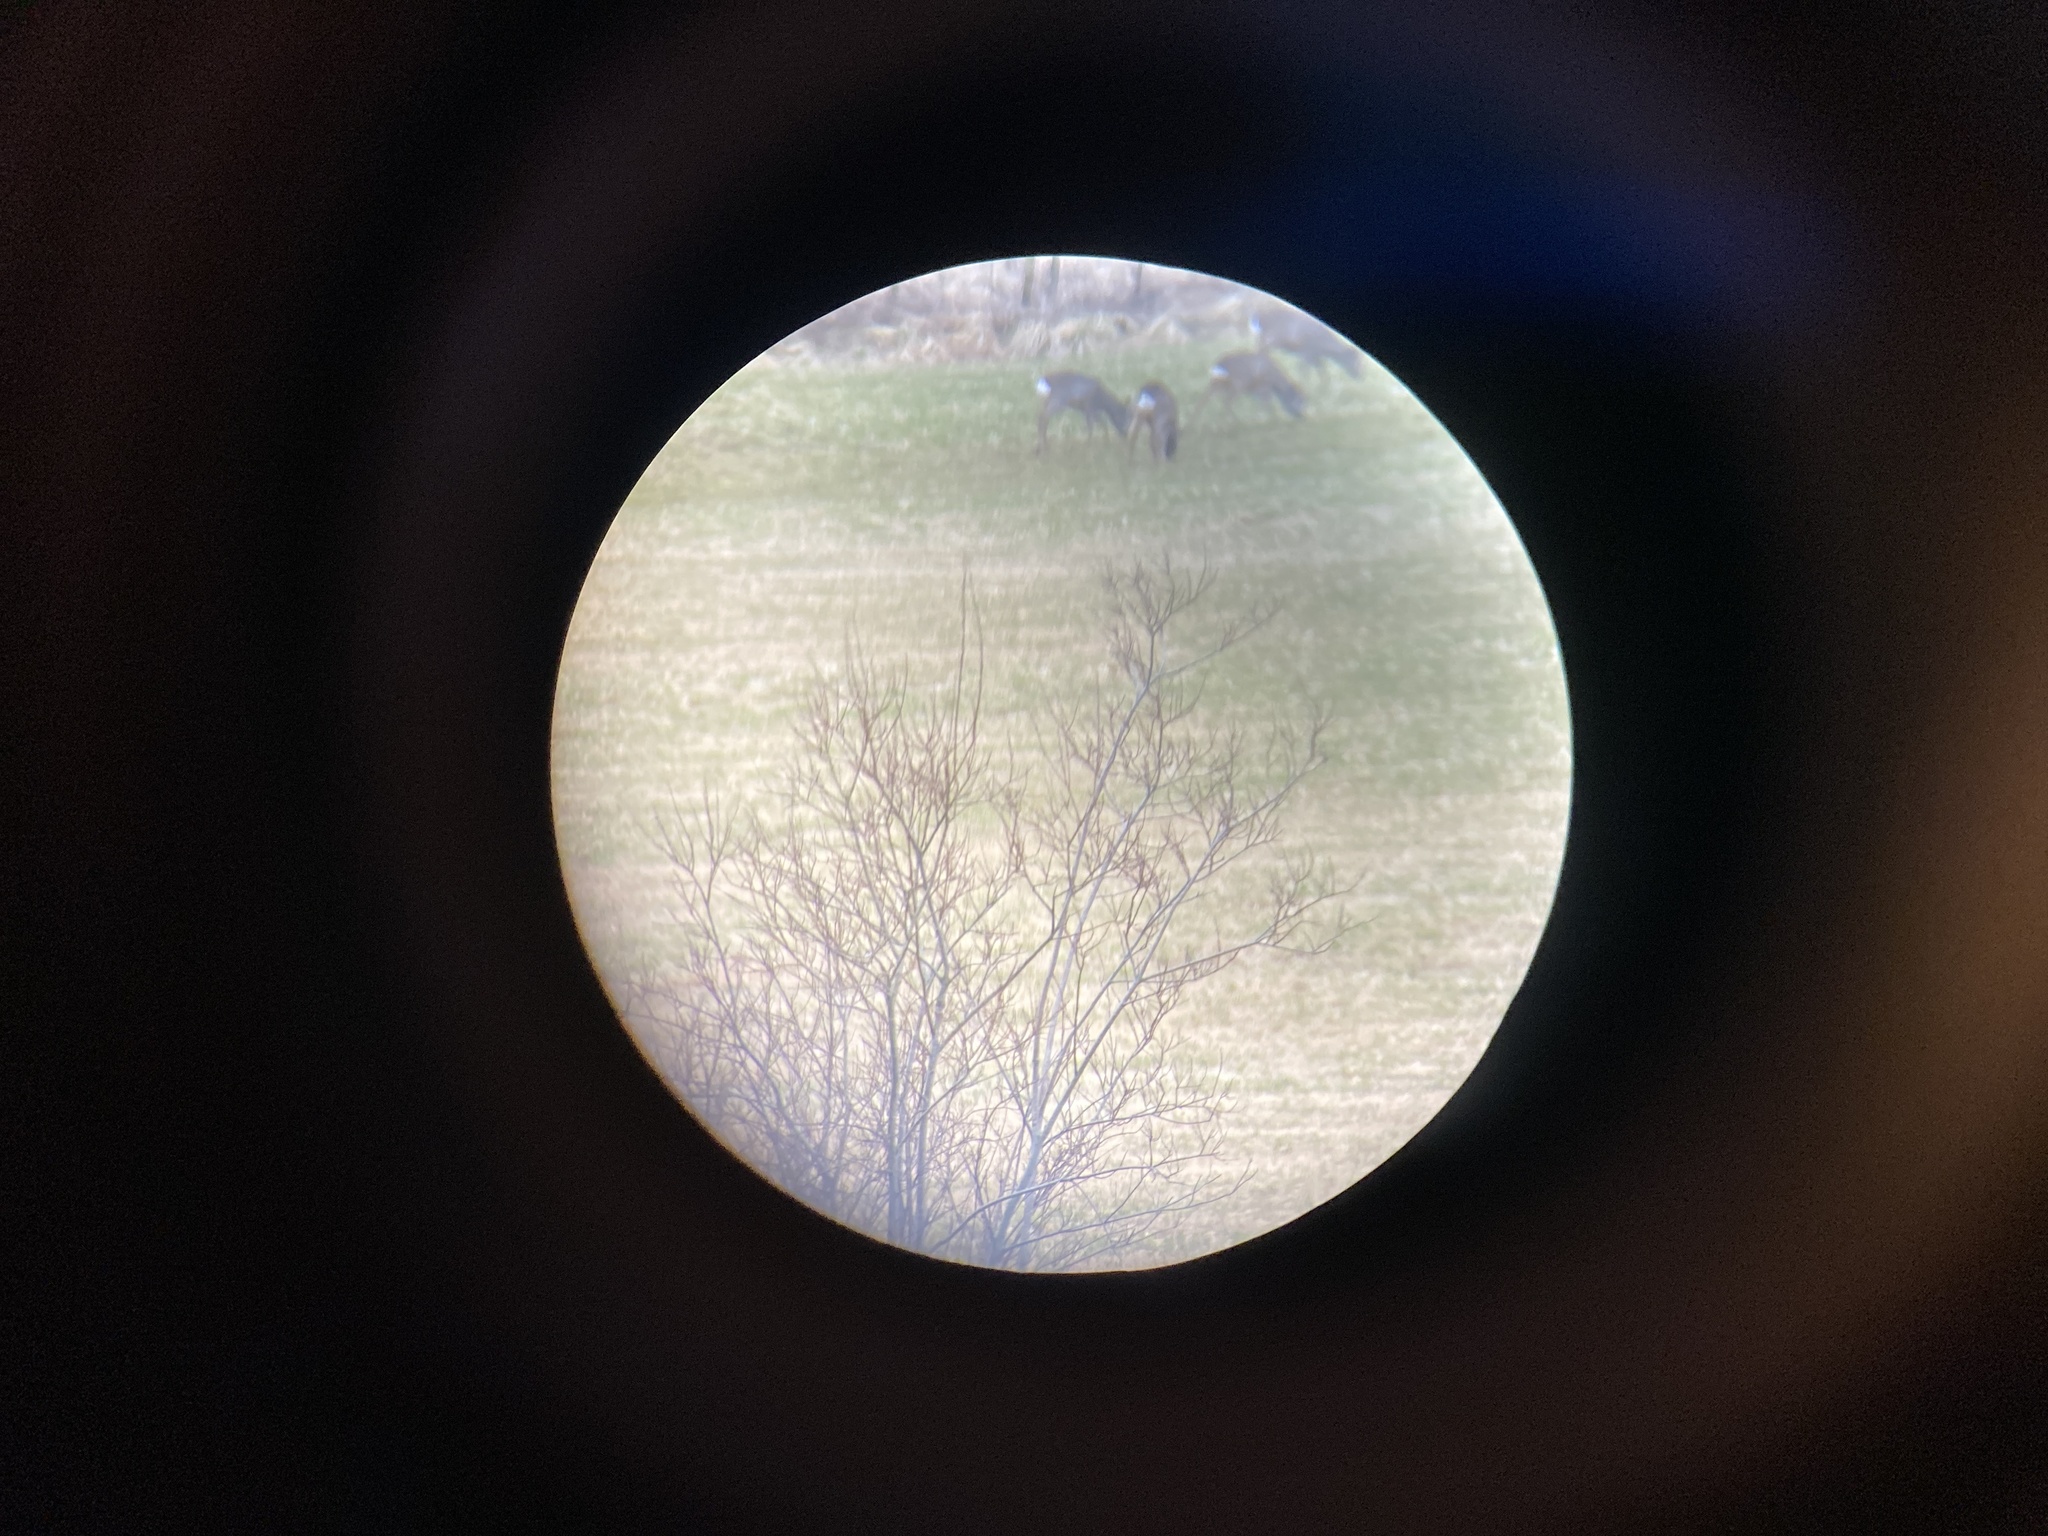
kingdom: Animalia
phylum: Chordata
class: Mammalia
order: Artiodactyla
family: Cervidae
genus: Capreolus
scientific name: Capreolus capreolus
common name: Western roe deer
